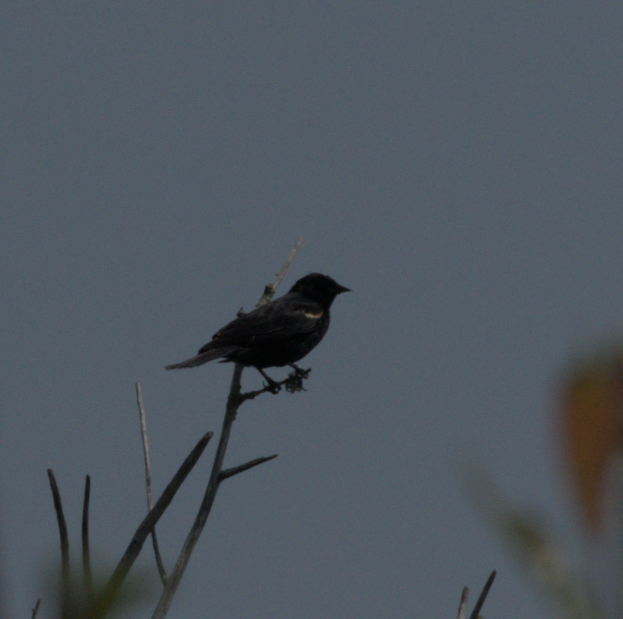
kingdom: Animalia
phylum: Chordata
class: Aves
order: Passeriformes
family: Icteridae
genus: Agelaius
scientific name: Agelaius phoeniceus
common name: Red-winged blackbird
